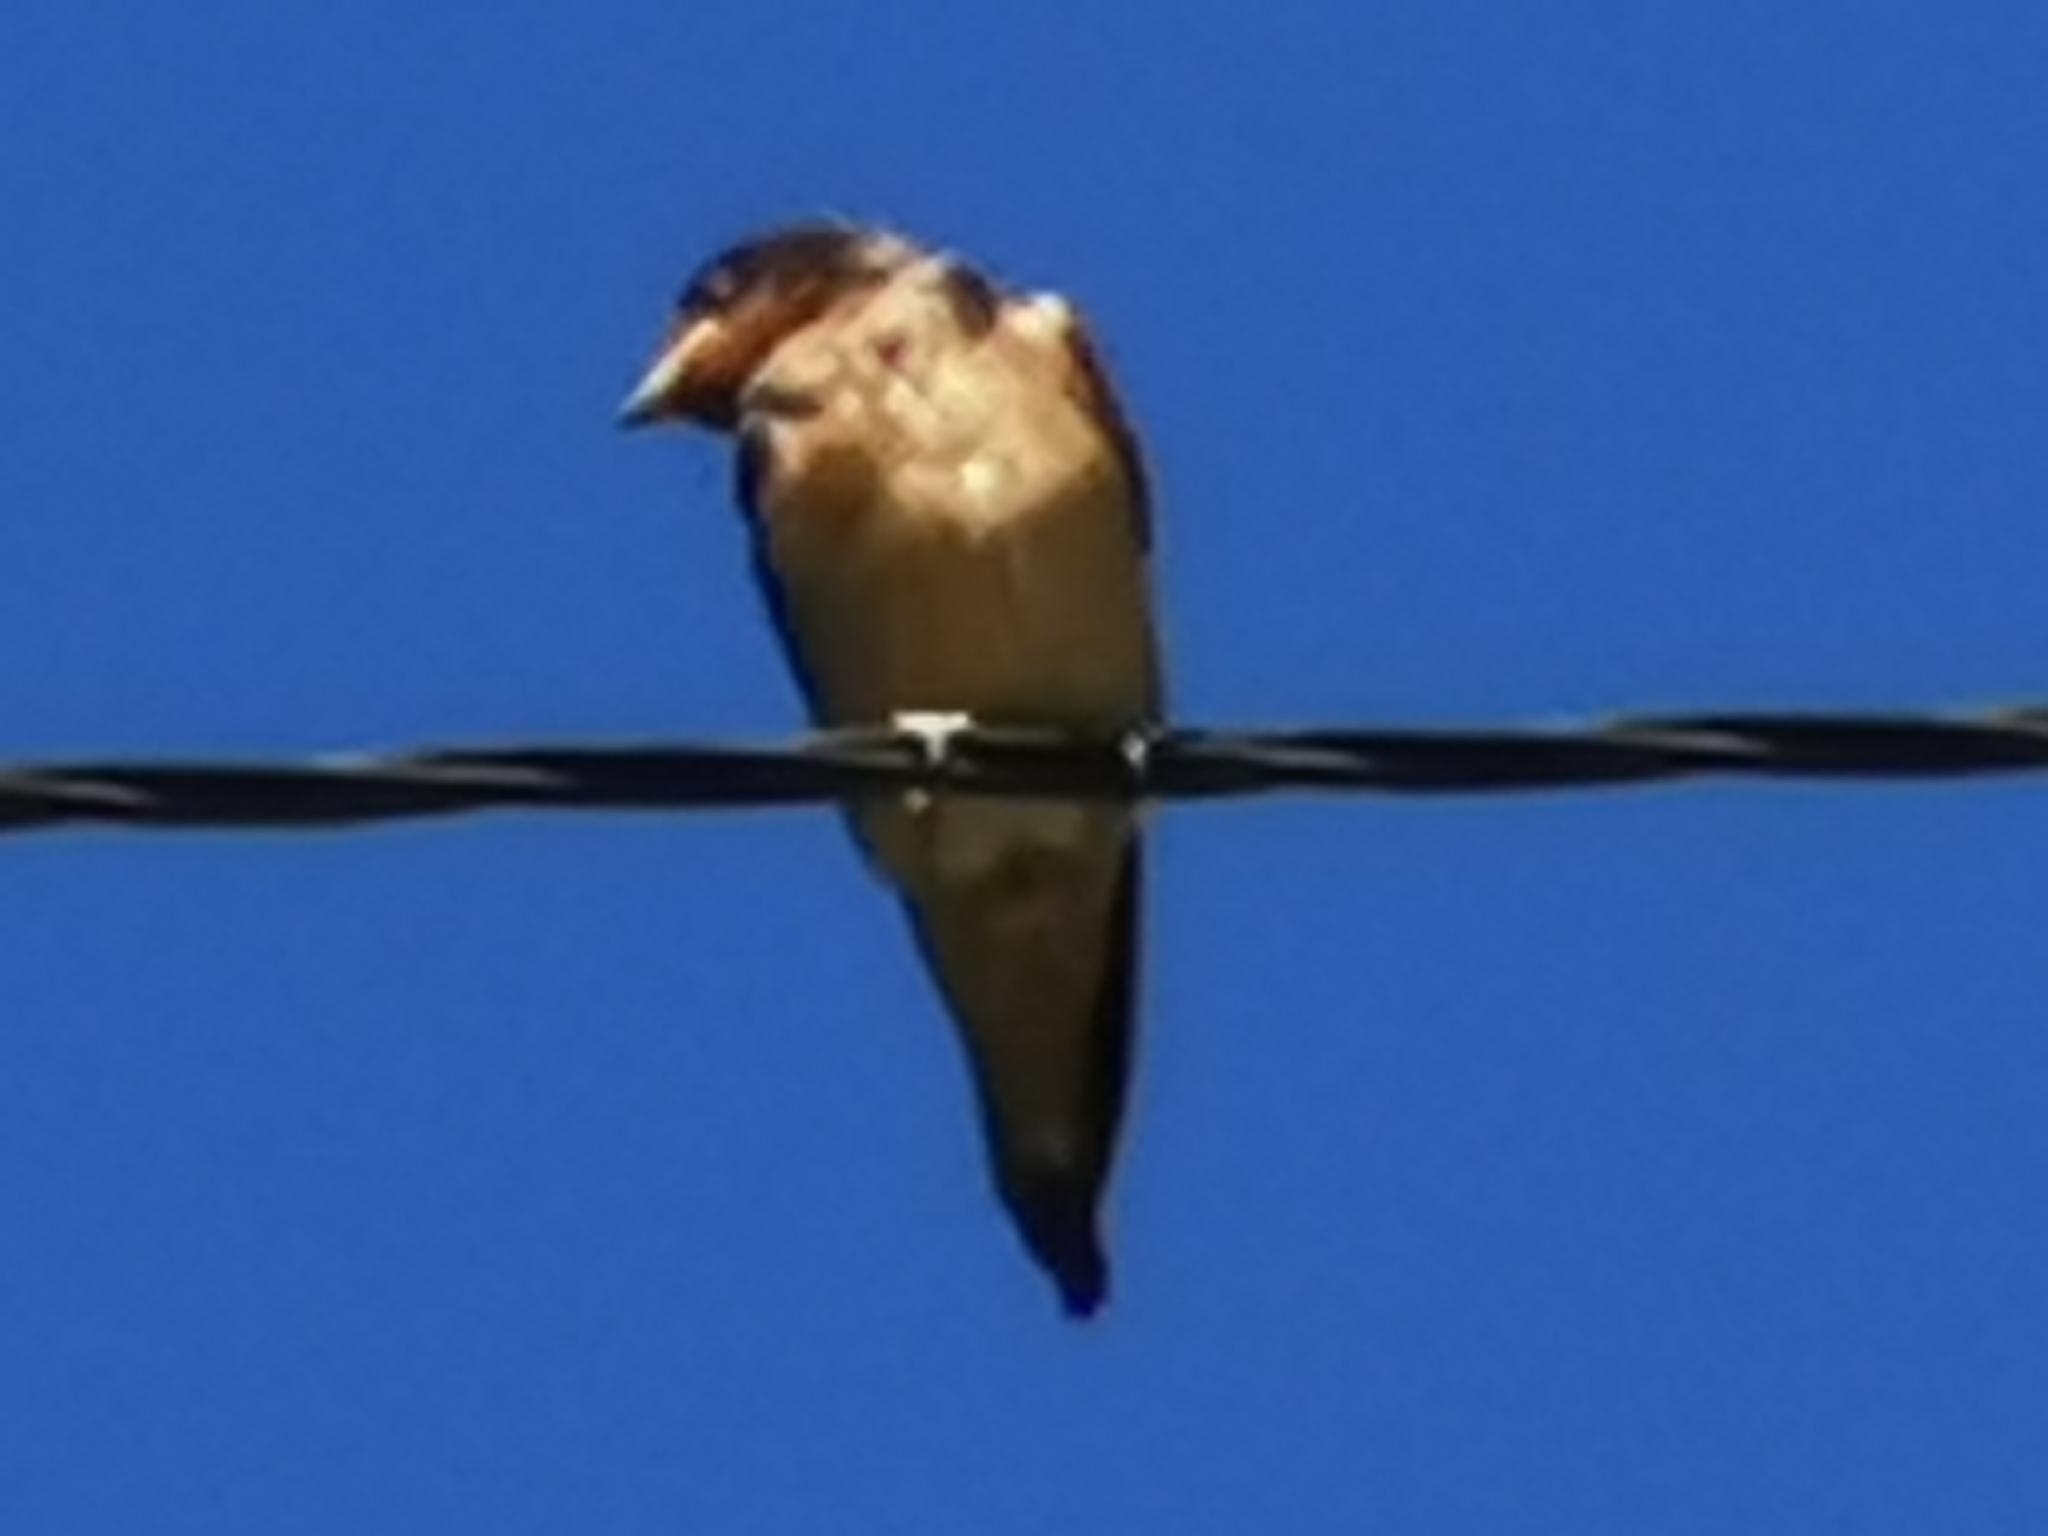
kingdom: Animalia
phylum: Chordata
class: Aves
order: Passeriformes
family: Hirundinidae
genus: Hirundo
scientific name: Hirundo rustica
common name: Barn swallow
